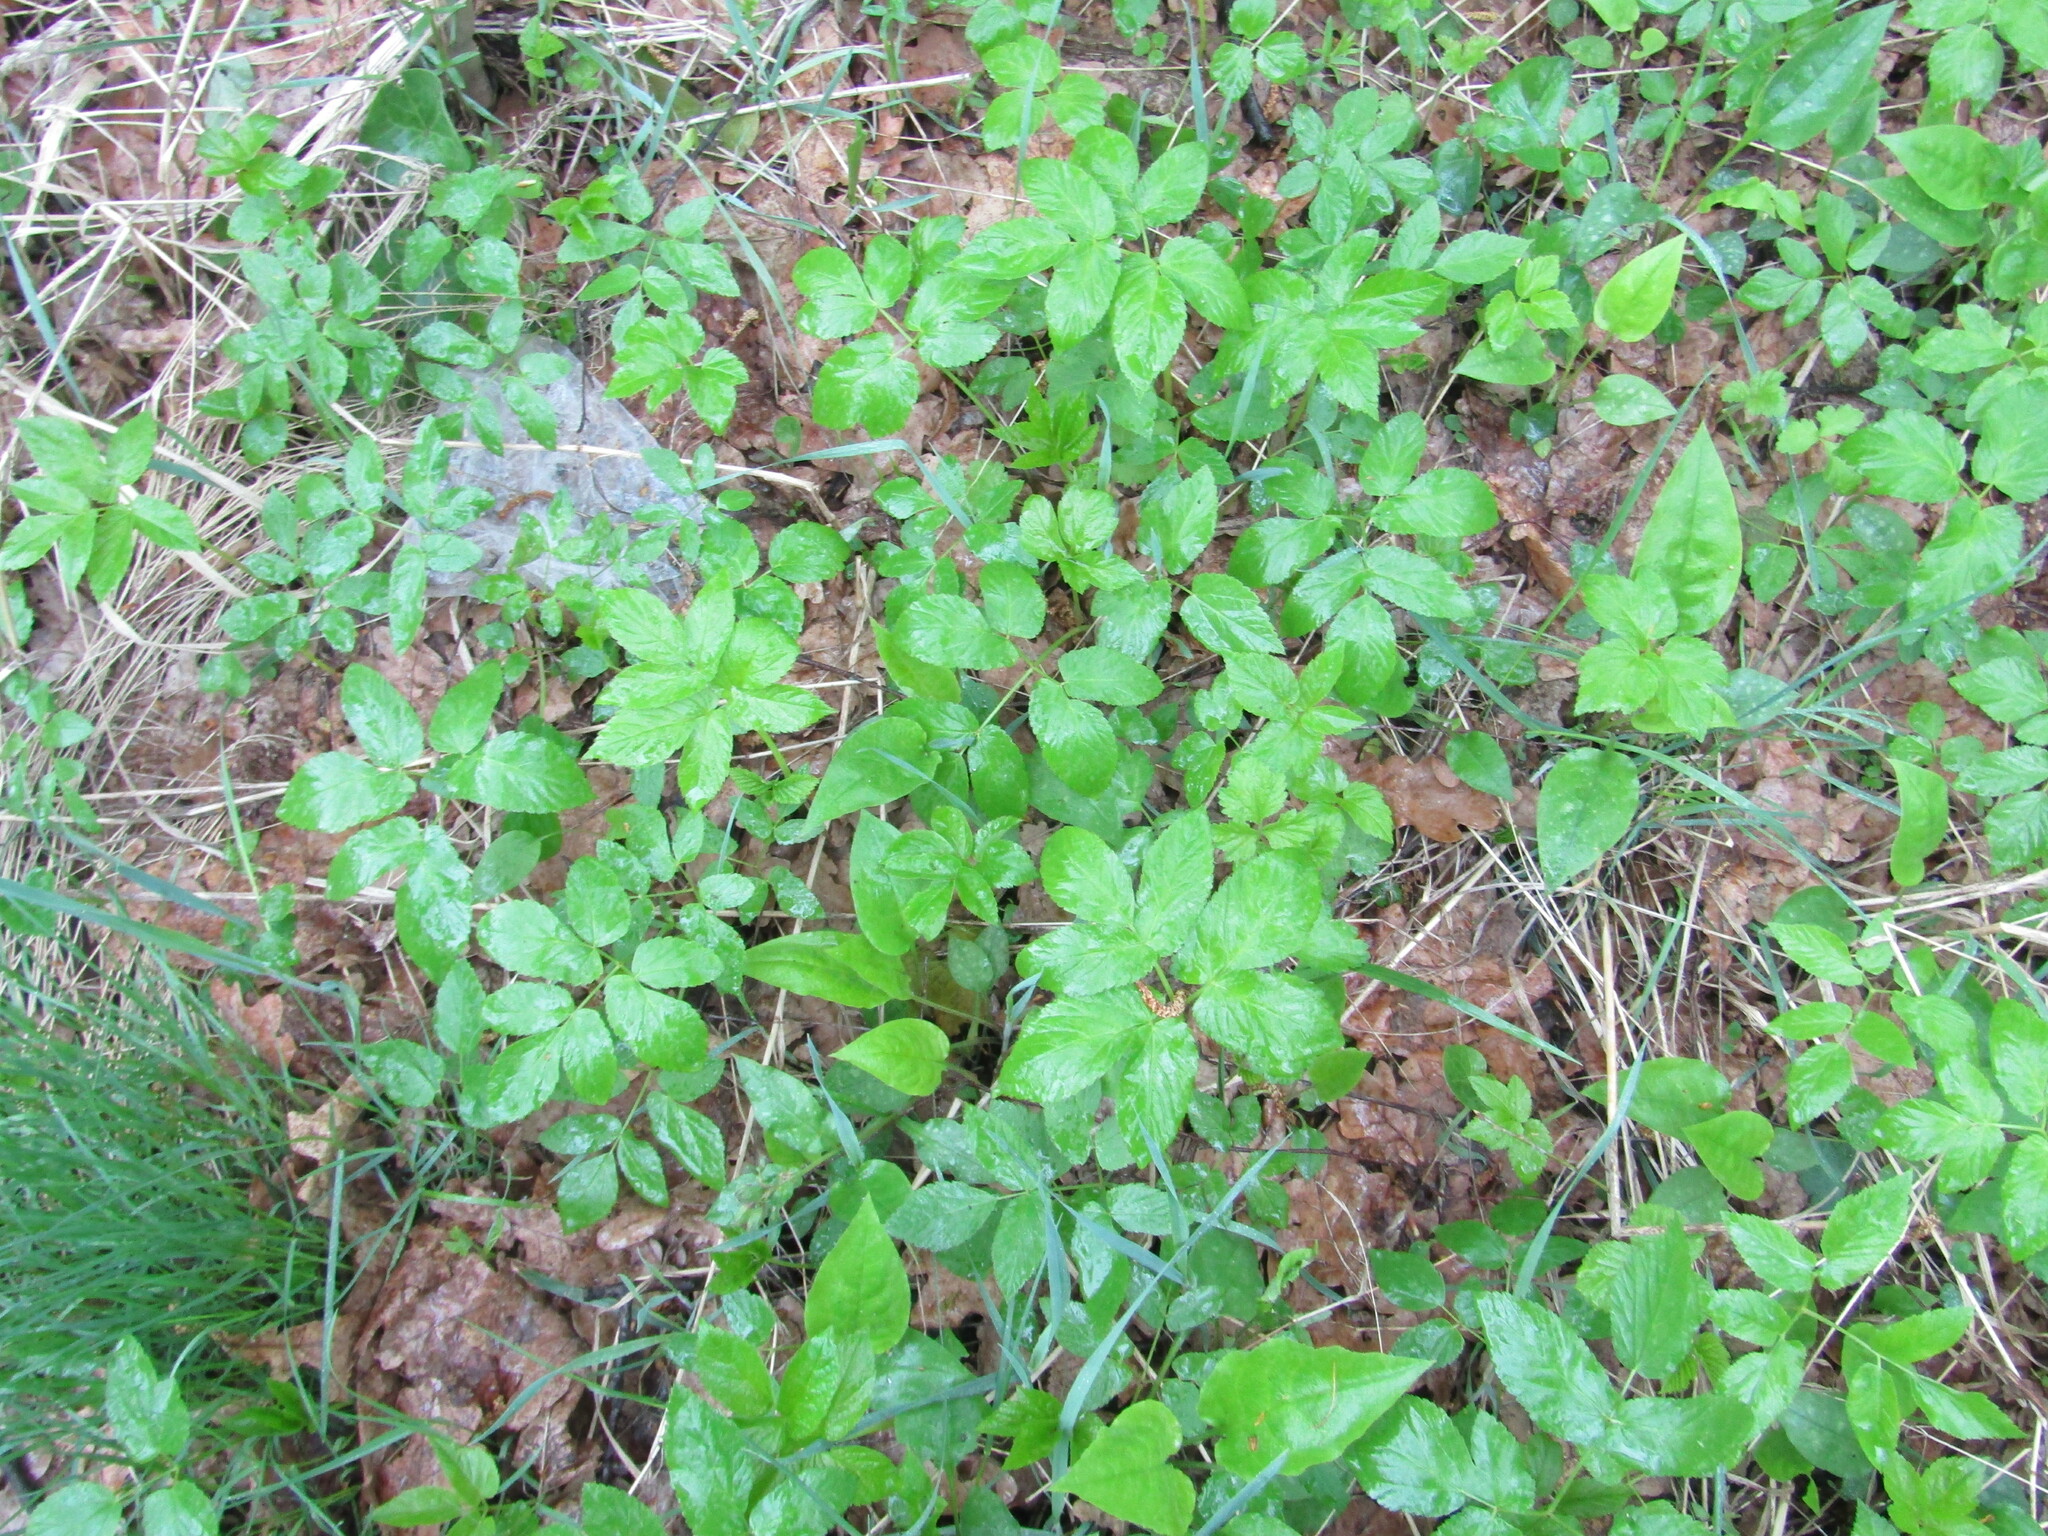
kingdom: Plantae
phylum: Tracheophyta
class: Magnoliopsida
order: Apiales
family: Apiaceae
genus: Aegopodium
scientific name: Aegopodium podagraria
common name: Ground-elder
